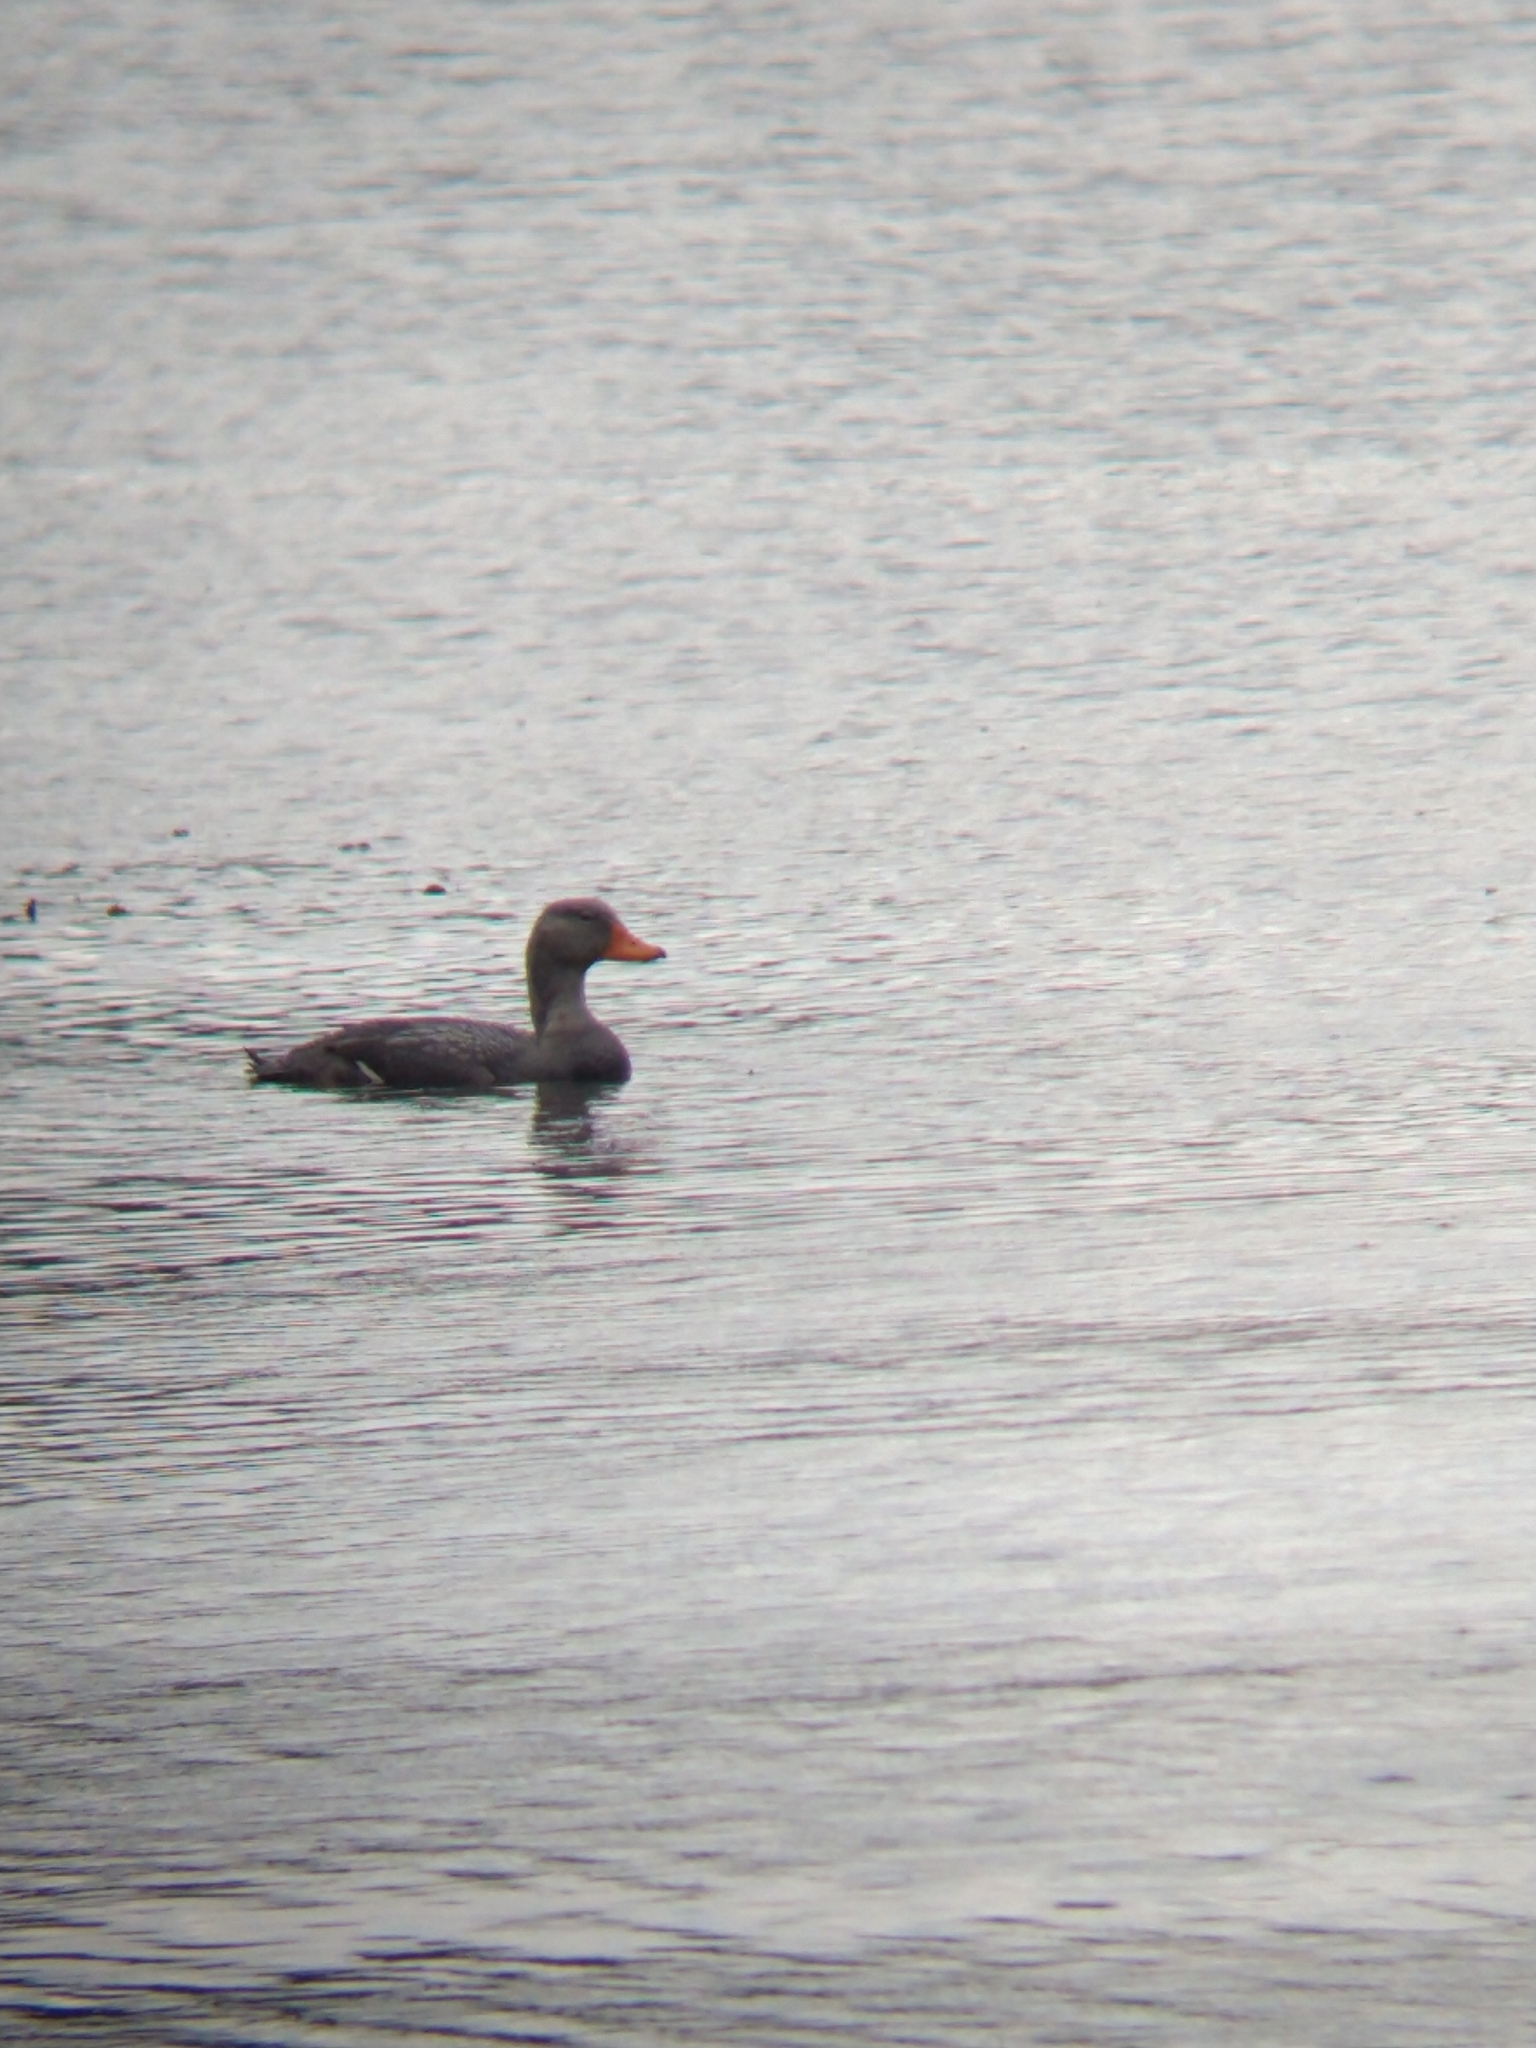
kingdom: Animalia
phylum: Chordata
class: Aves
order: Anseriformes
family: Anatidae
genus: Tachyeres
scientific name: Tachyeres pteneres
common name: Fuegian steamer duck
